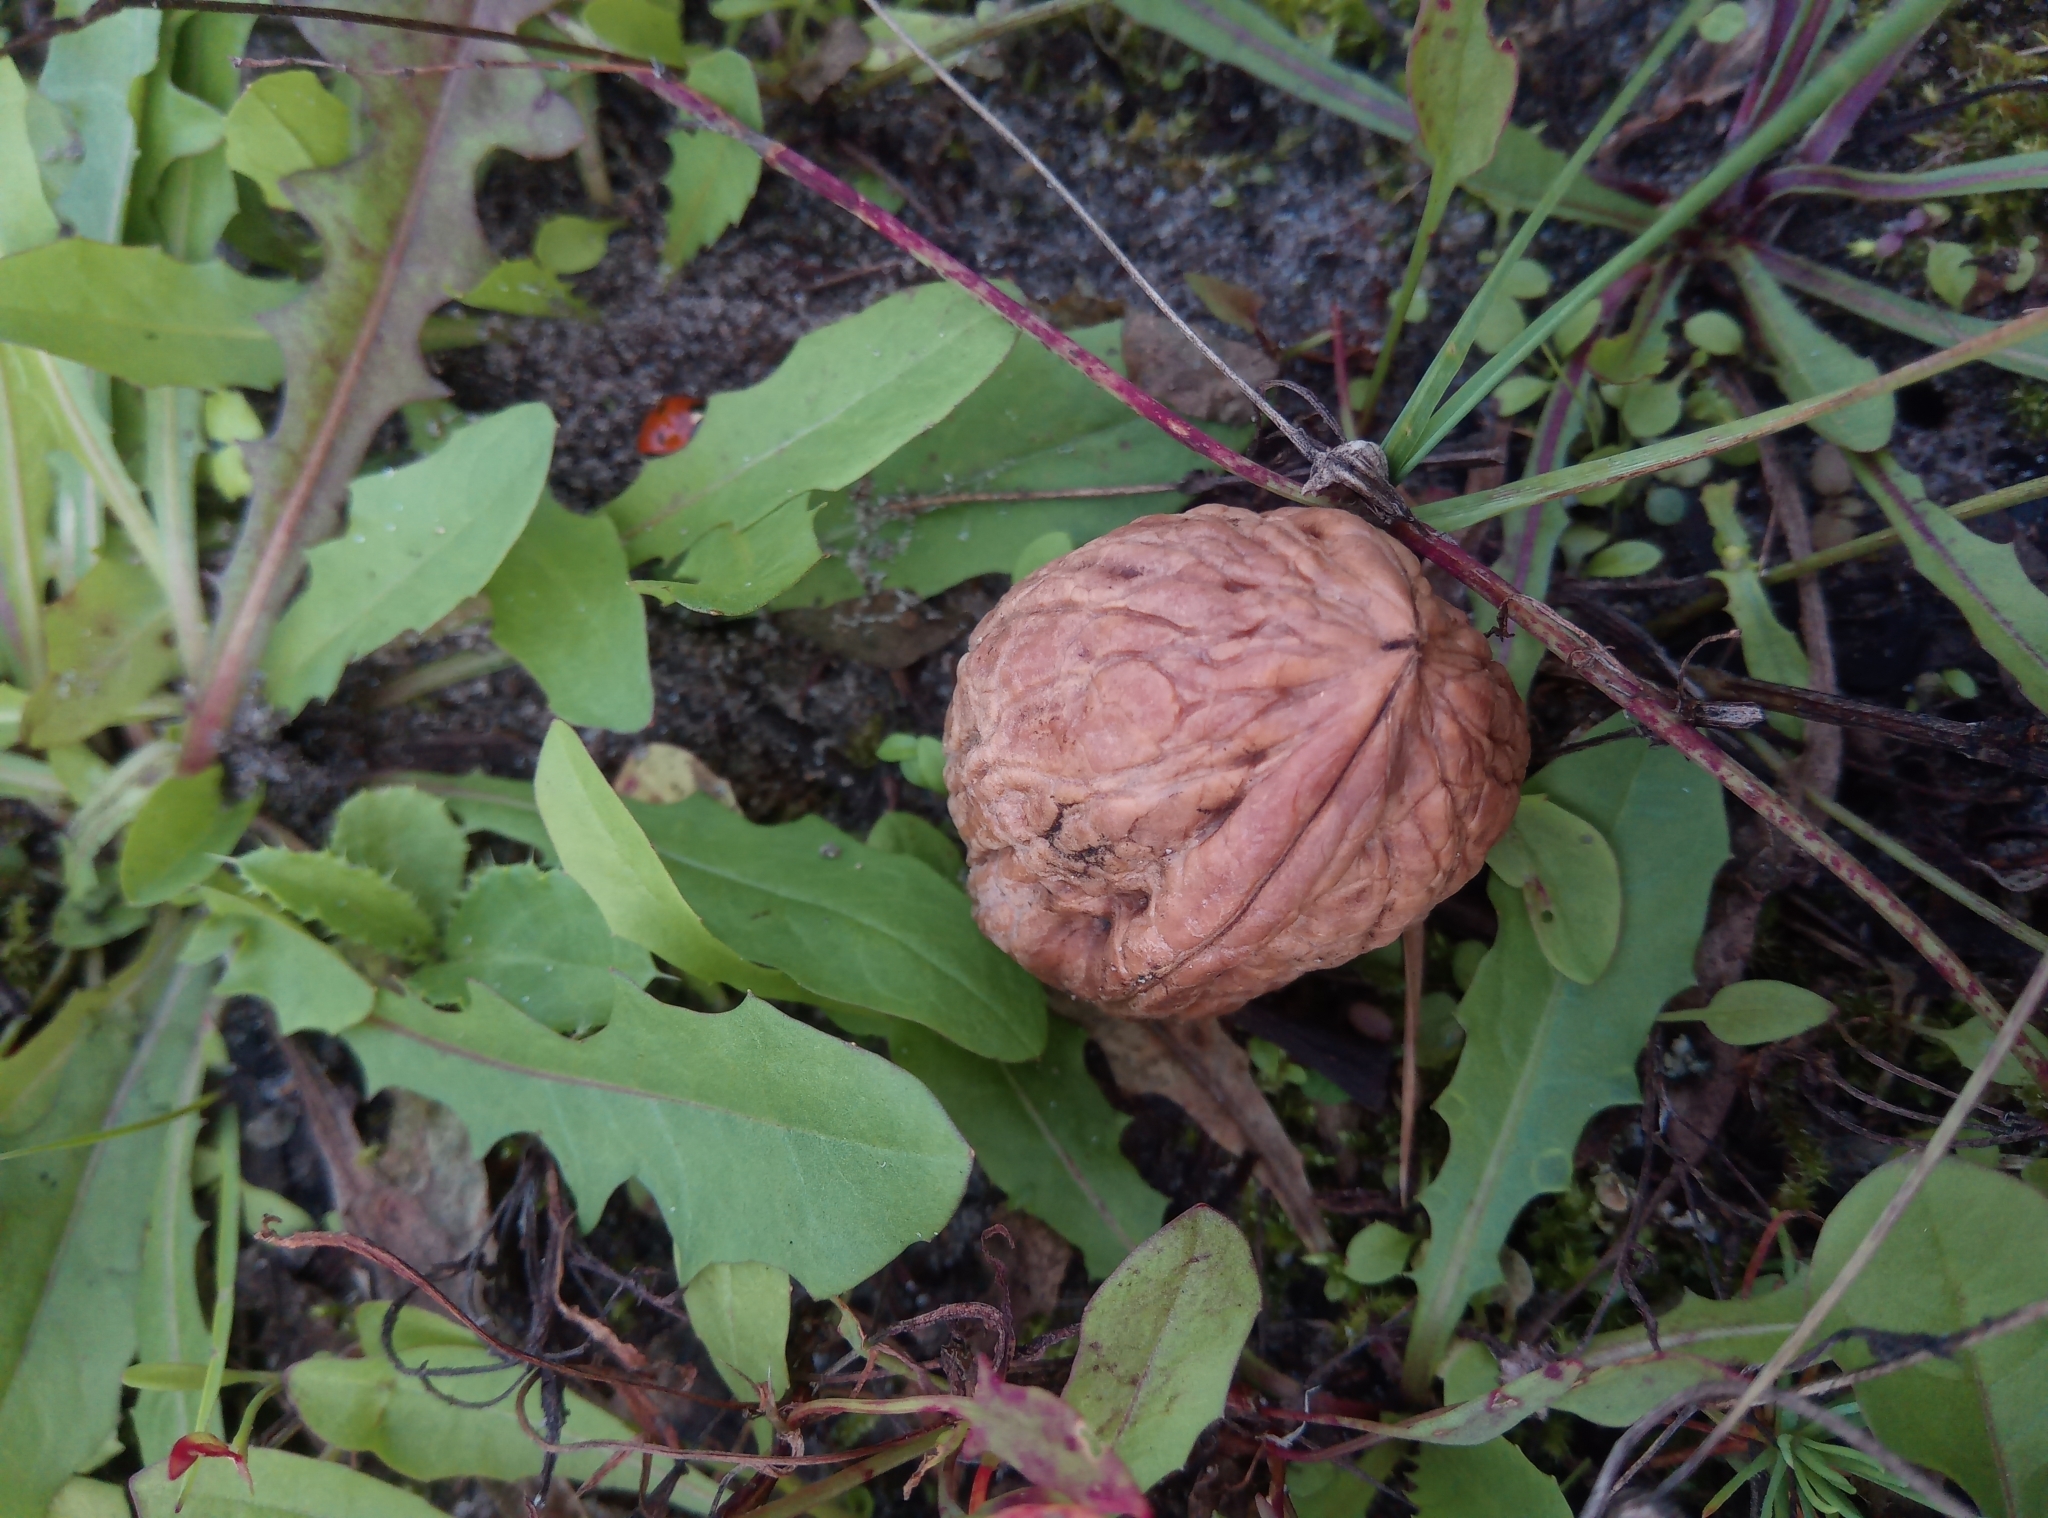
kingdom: Plantae
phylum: Tracheophyta
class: Magnoliopsida
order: Fagales
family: Juglandaceae
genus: Juglans
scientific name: Juglans regia
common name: Walnut
